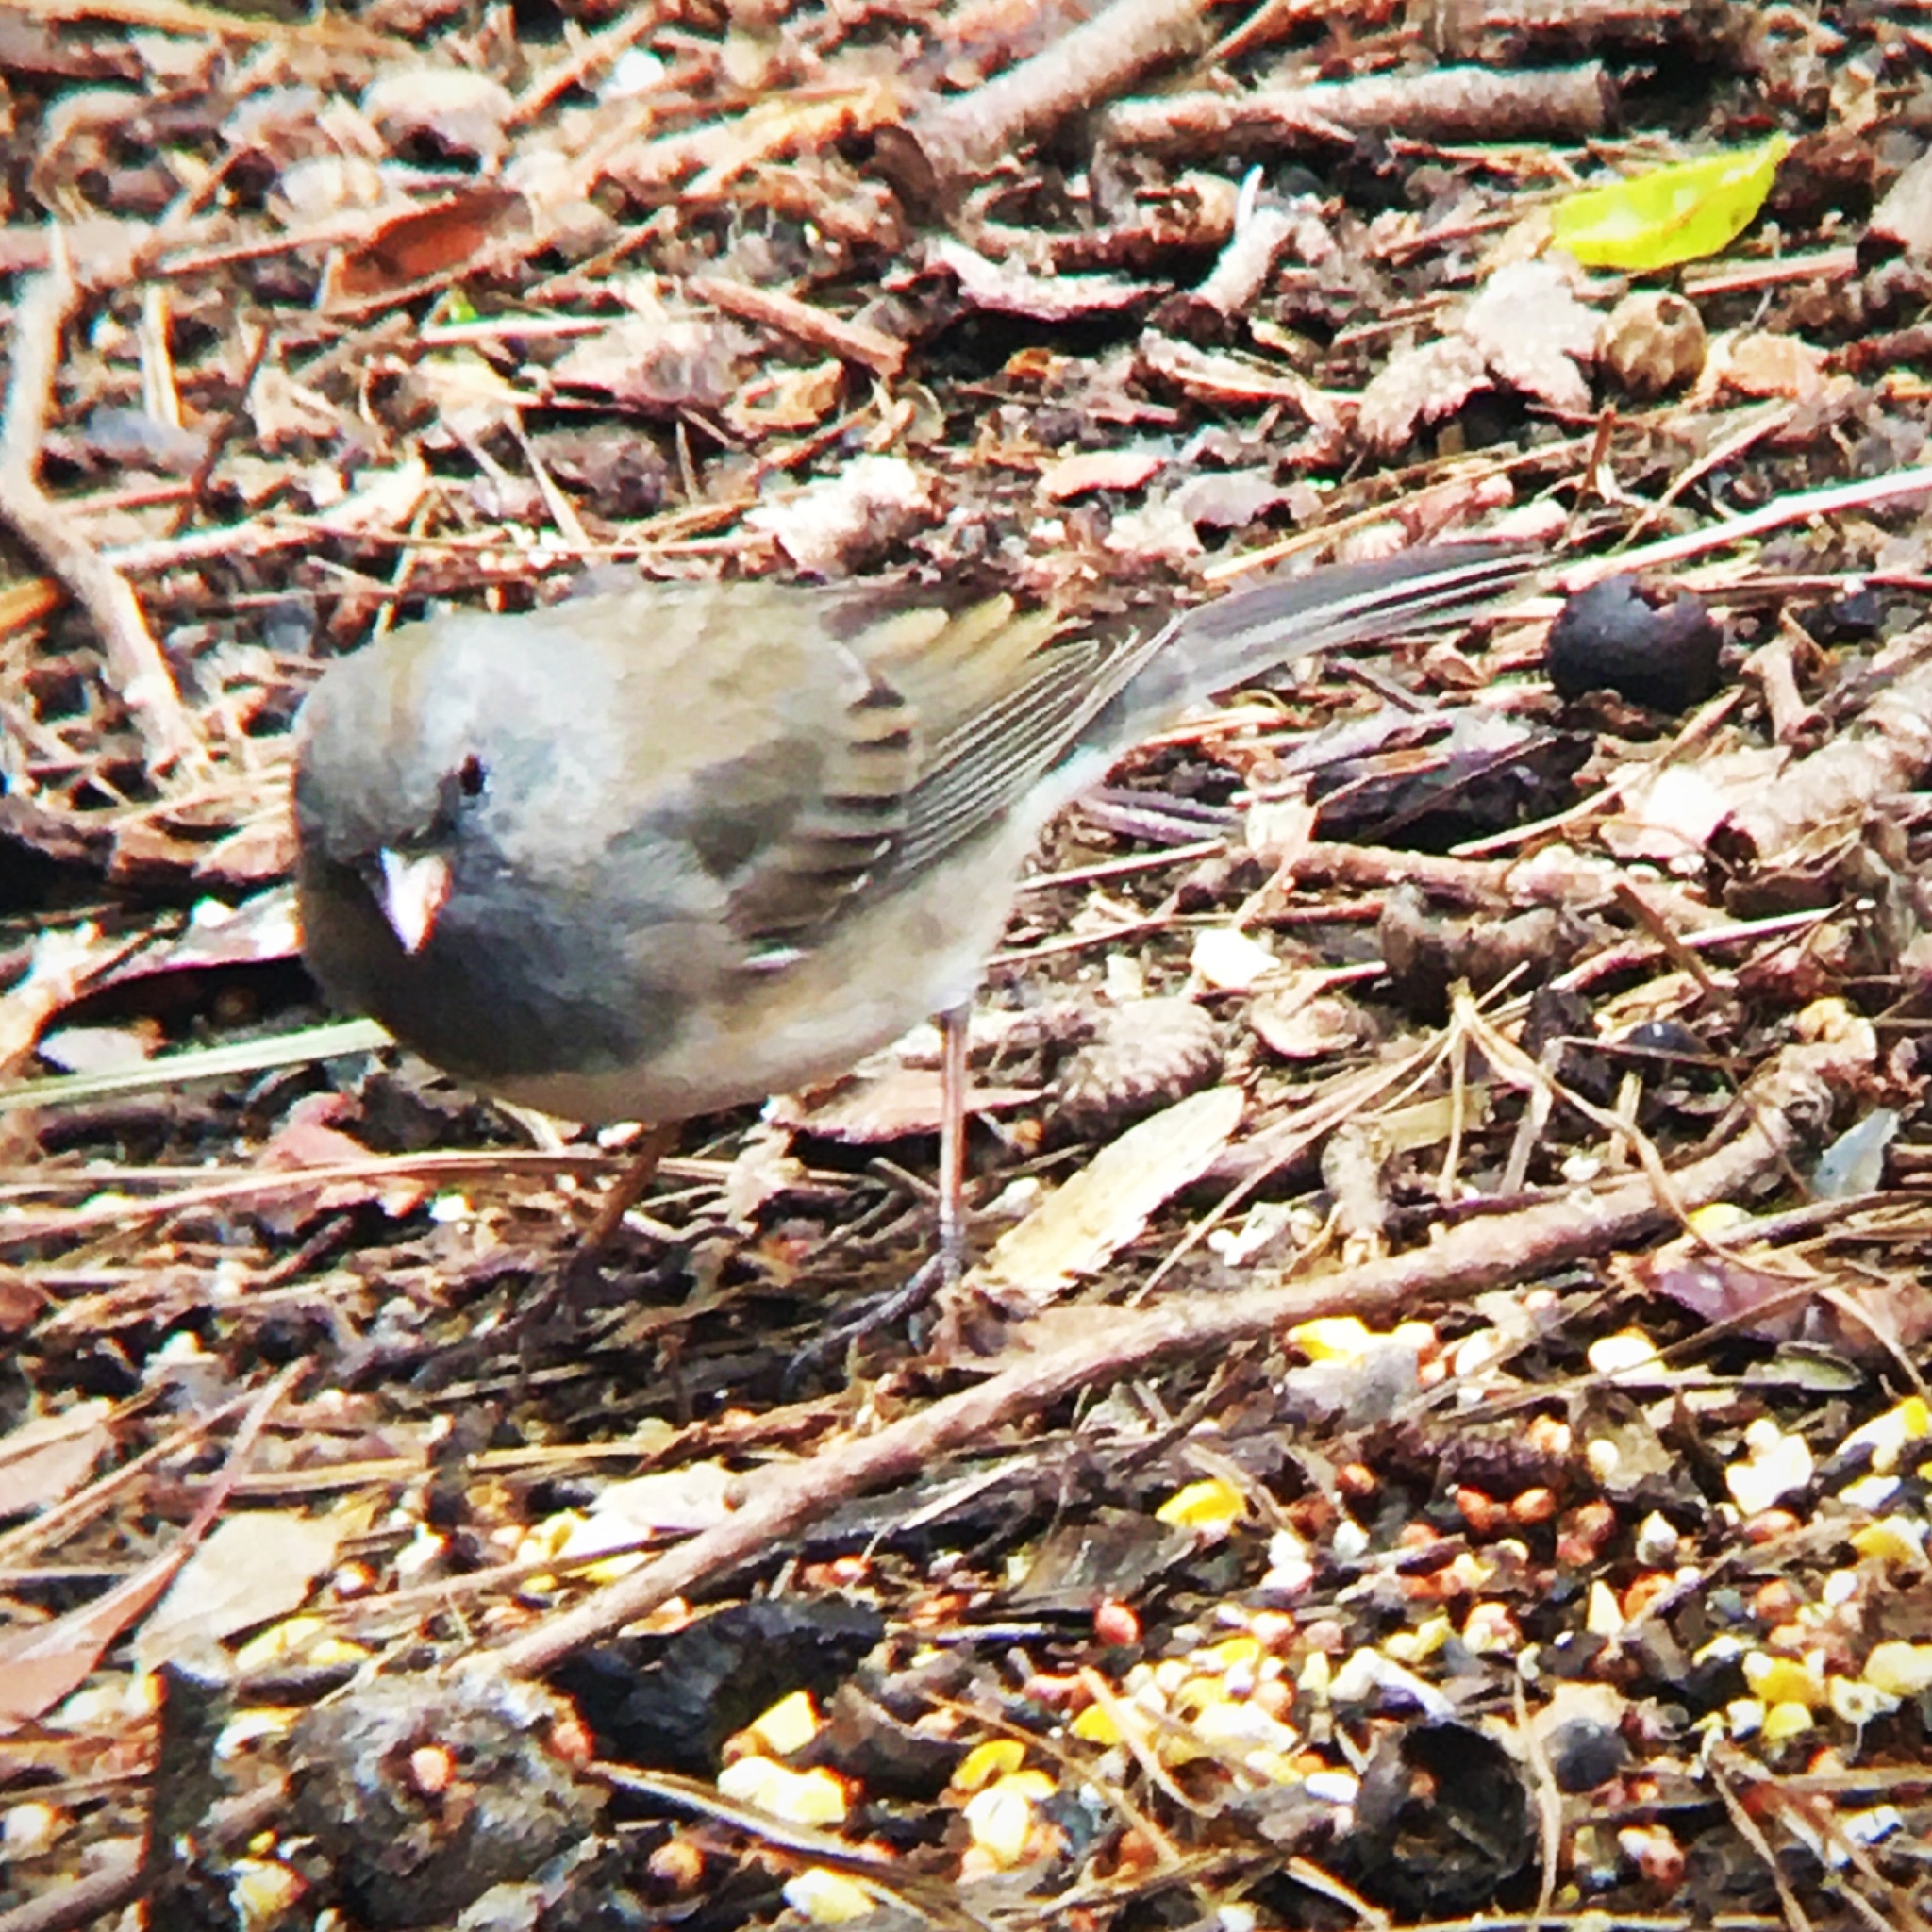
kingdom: Animalia
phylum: Chordata
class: Aves
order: Passeriformes
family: Passerellidae
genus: Junco
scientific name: Junco hyemalis
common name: Dark-eyed junco
